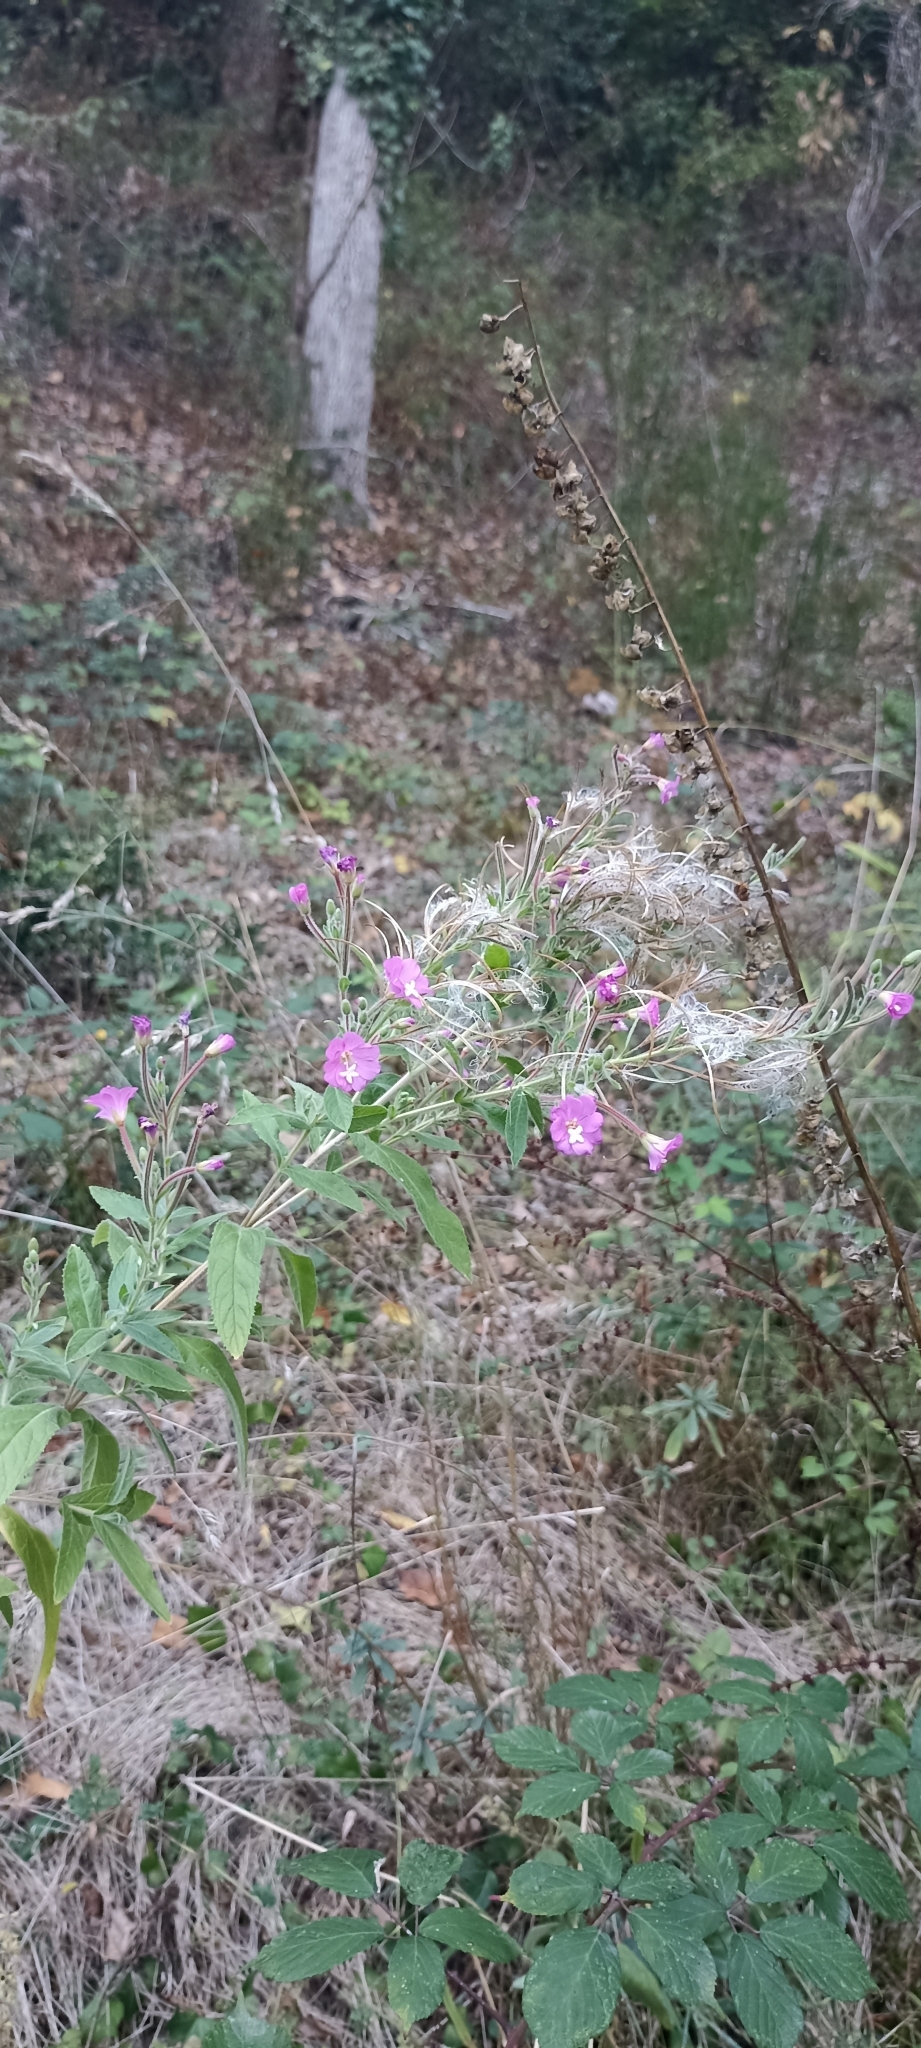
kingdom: Plantae
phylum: Tracheophyta
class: Magnoliopsida
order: Myrtales
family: Onagraceae
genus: Epilobium
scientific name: Epilobium hirsutum
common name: Great willowherb
